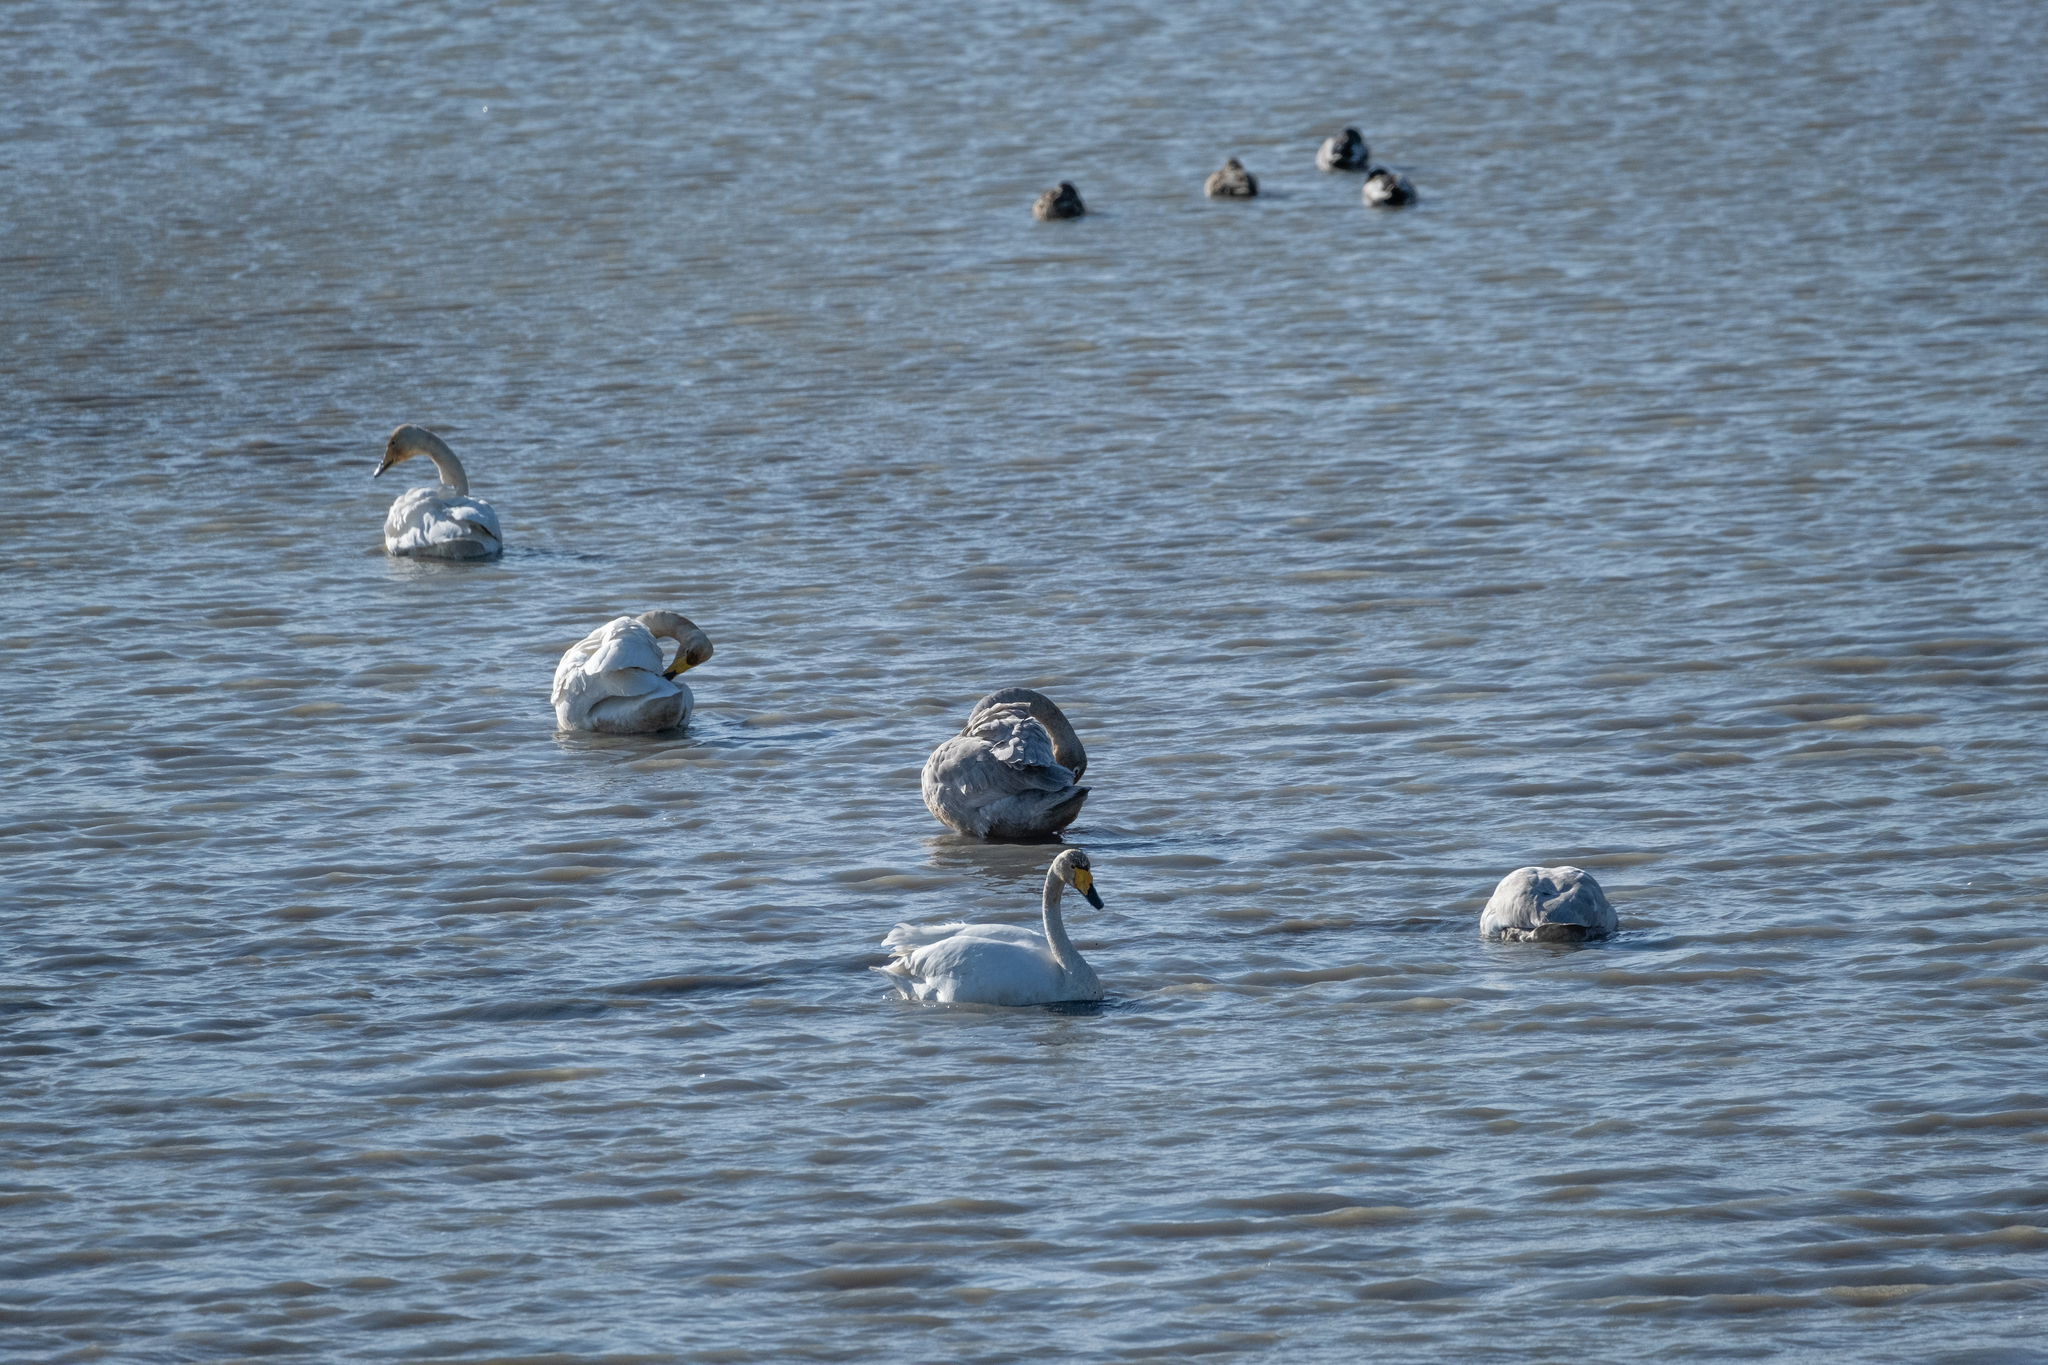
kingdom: Animalia
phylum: Chordata
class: Aves
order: Anseriformes
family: Anatidae
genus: Cygnus
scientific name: Cygnus cygnus
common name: Whooper swan
